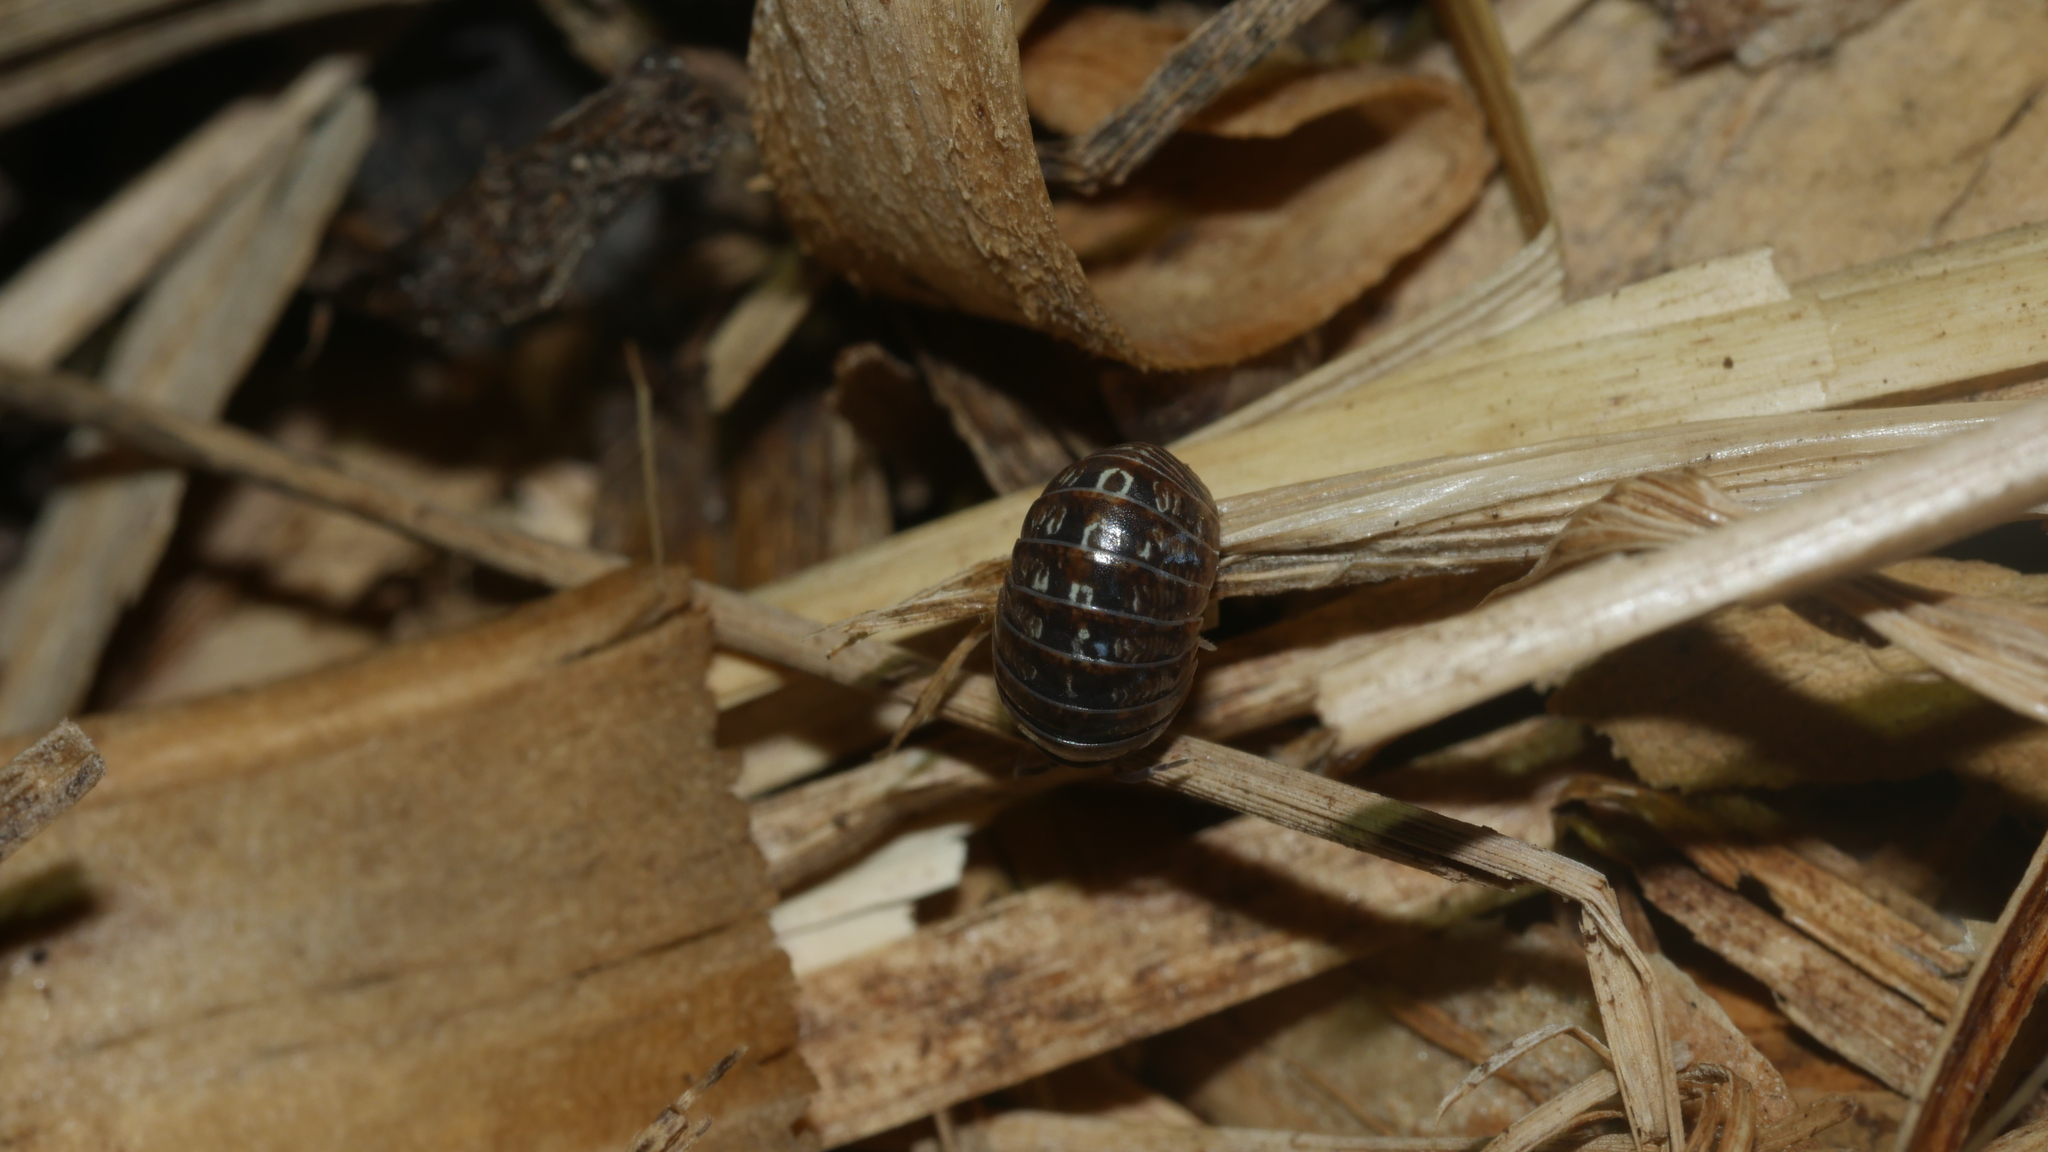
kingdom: Animalia
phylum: Arthropoda
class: Malacostraca
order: Isopoda
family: Armadillidiidae
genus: Armadillidium
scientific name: Armadillidium vulgare
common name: Common pill woodlouse
